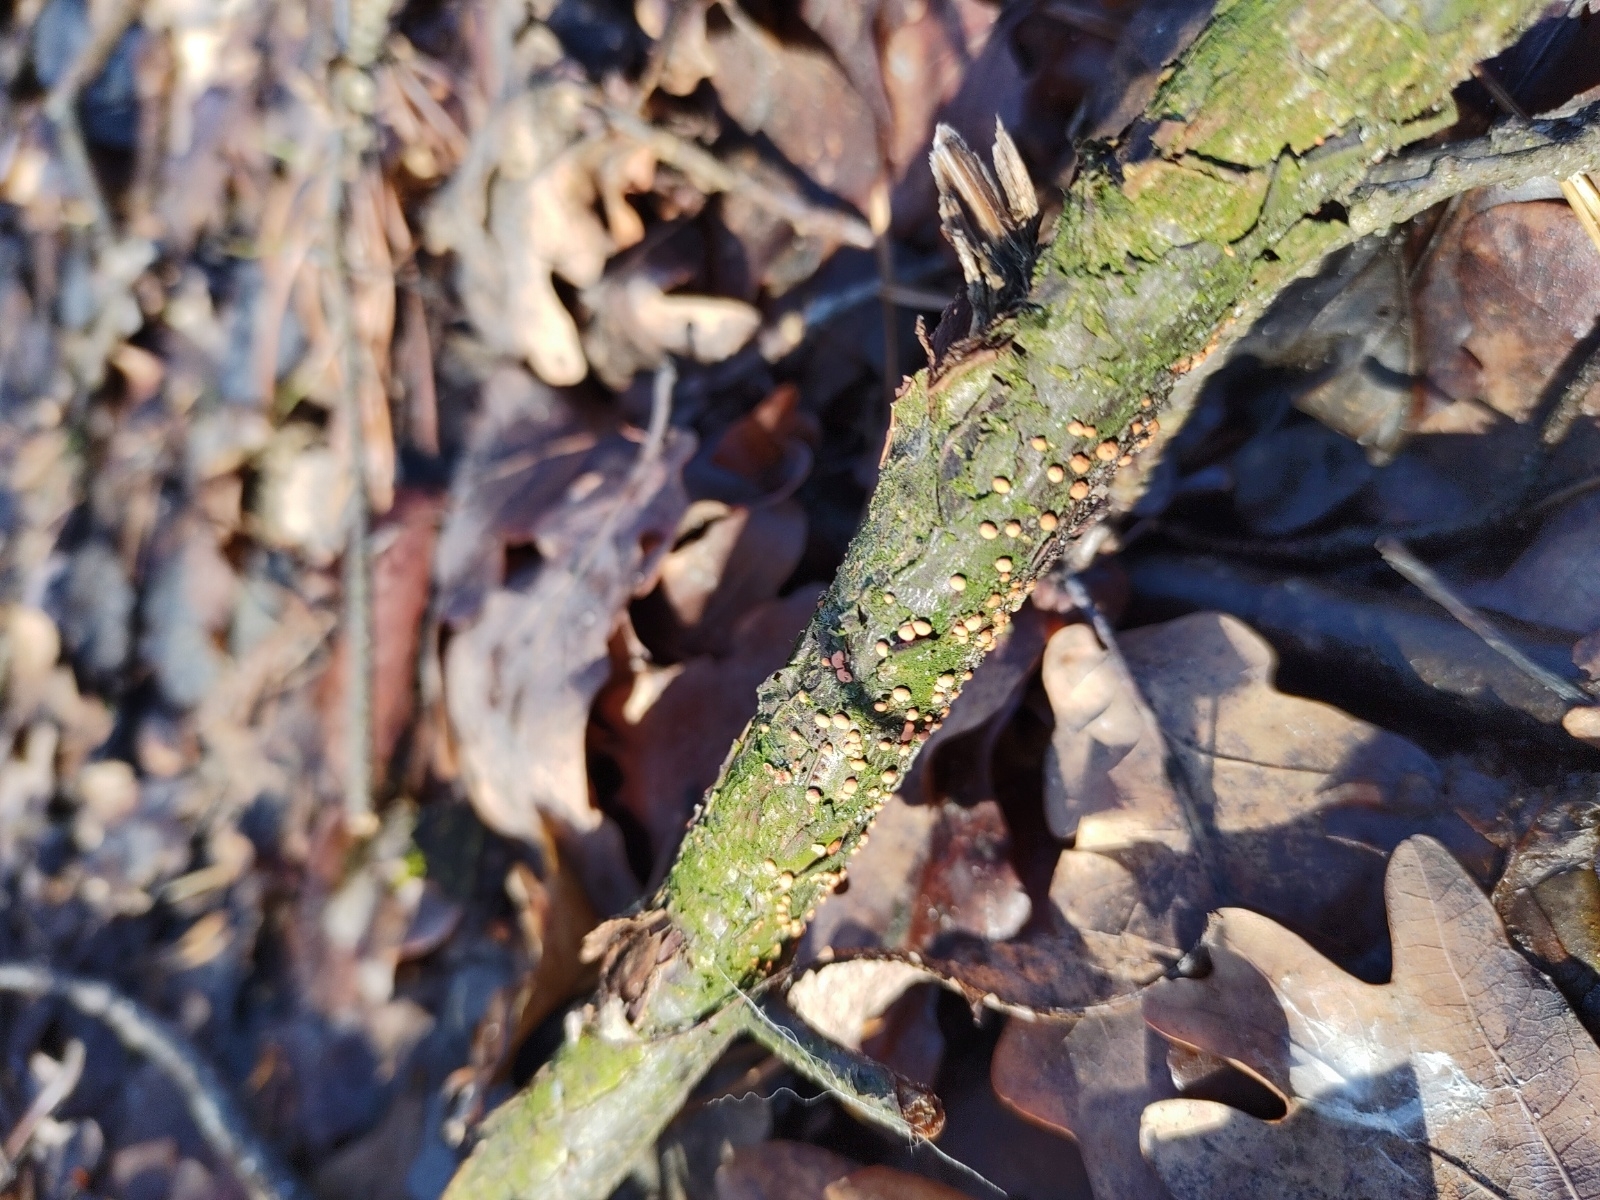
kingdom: Fungi
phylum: Ascomycota
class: Sordariomycetes
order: Hypocreales
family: Nectriaceae
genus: Nectria
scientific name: Nectria cinnabarina
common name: Coral spot
